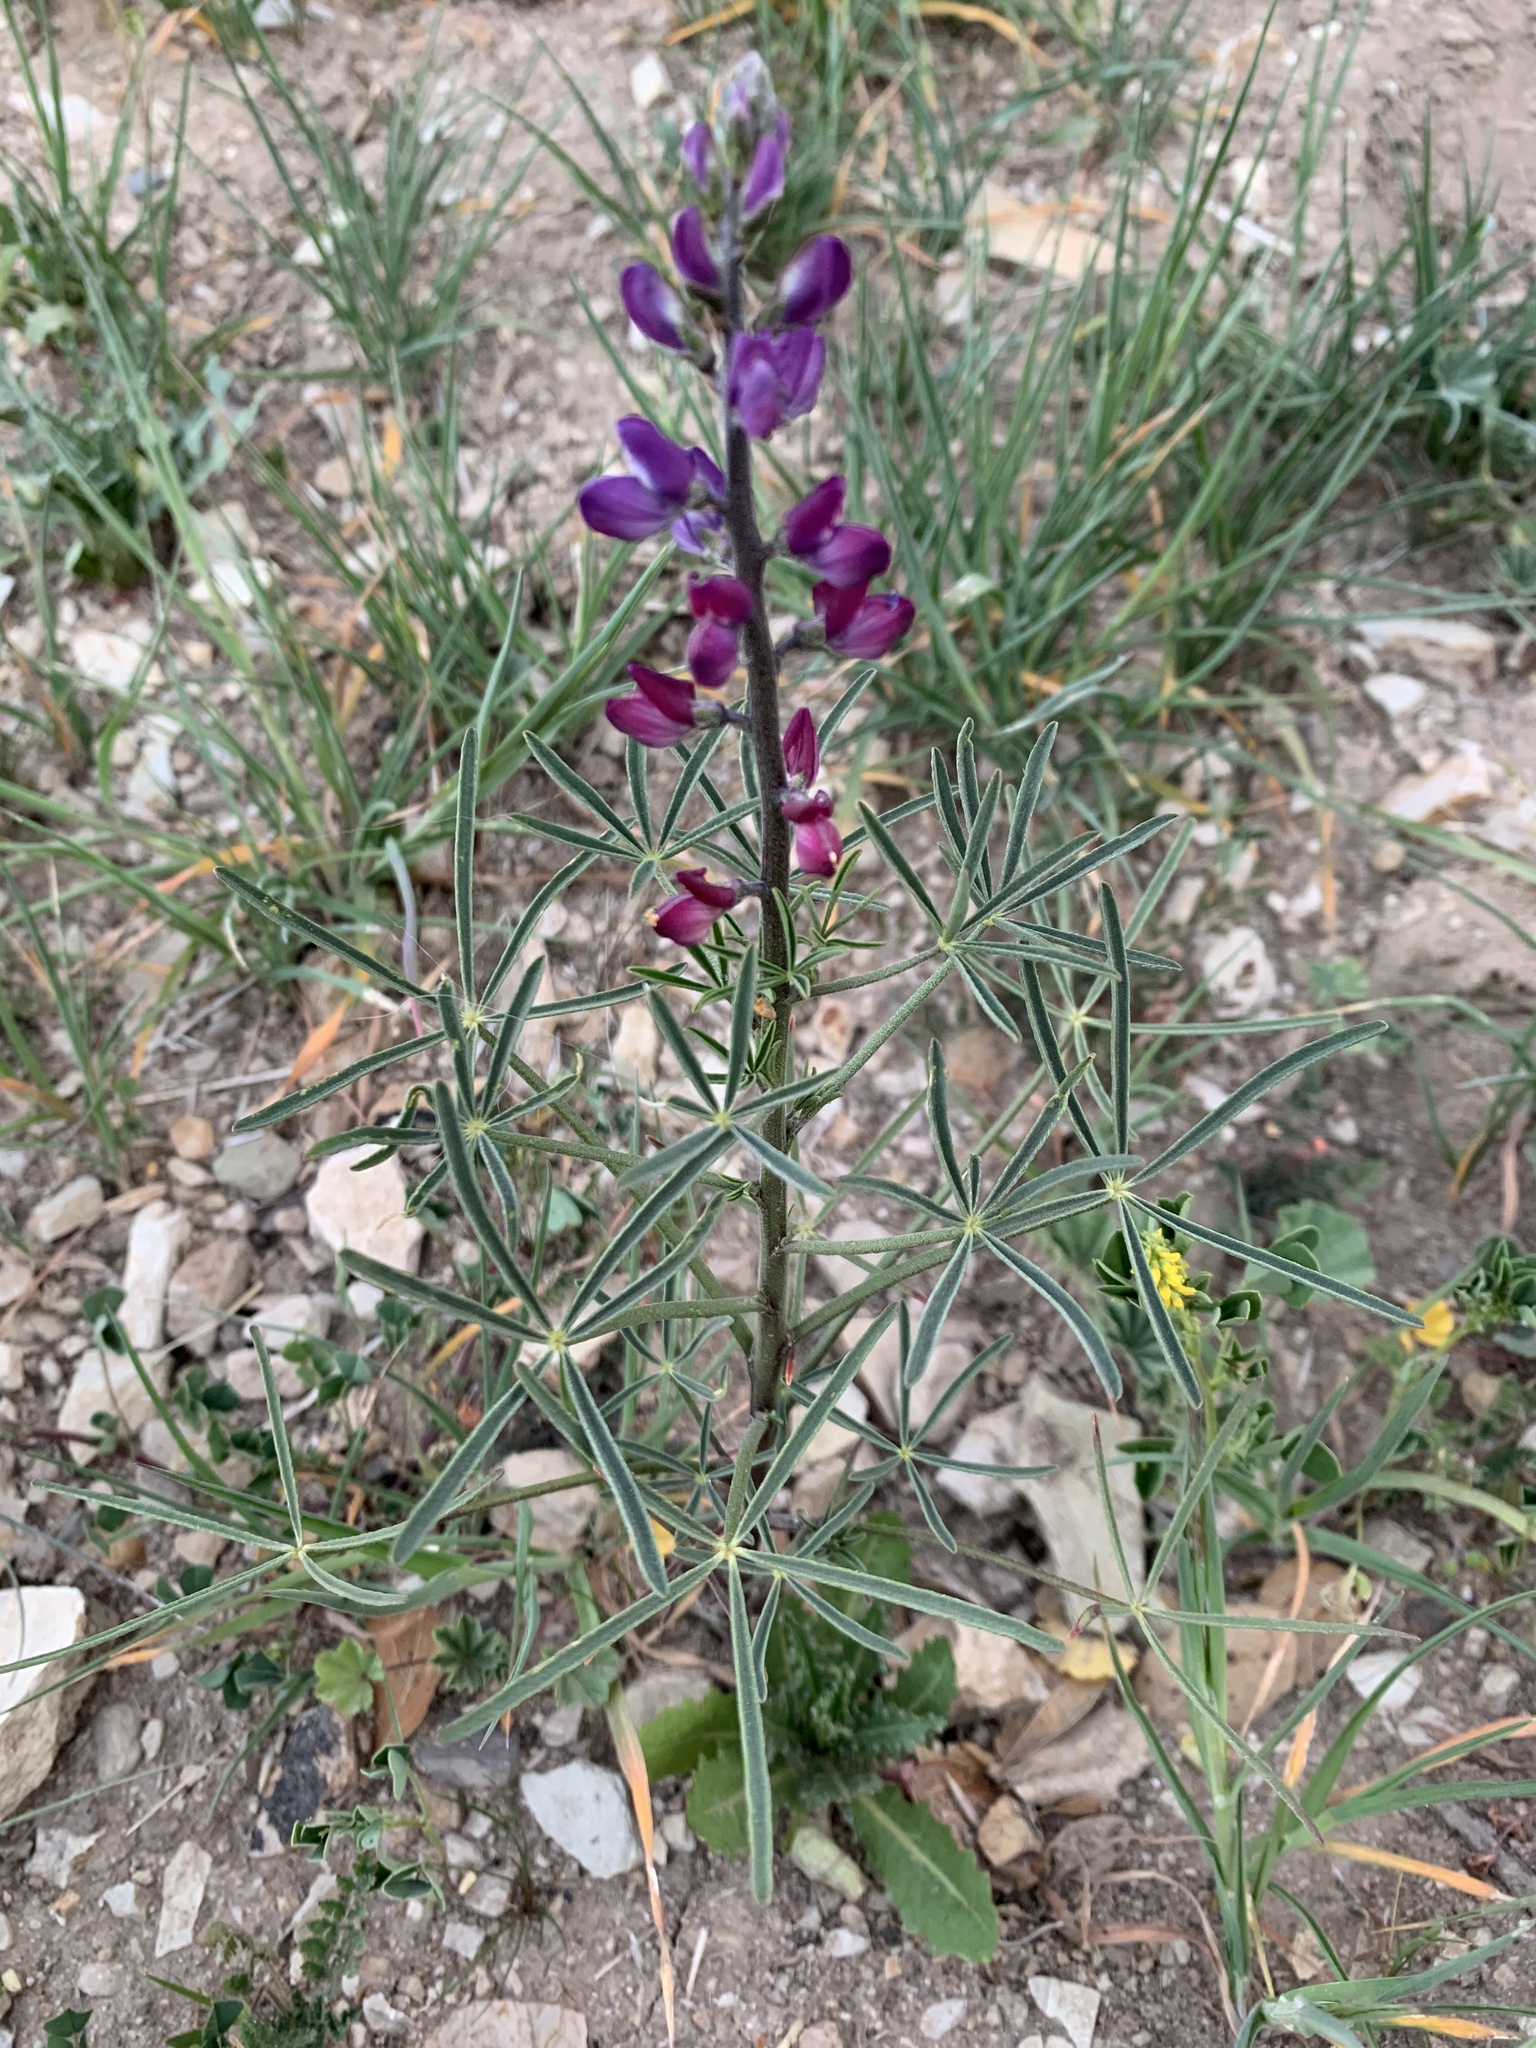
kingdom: Plantae
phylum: Tracheophyta
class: Magnoliopsida
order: Fabales
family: Fabaceae
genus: Lupinus
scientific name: Lupinus truncatus
